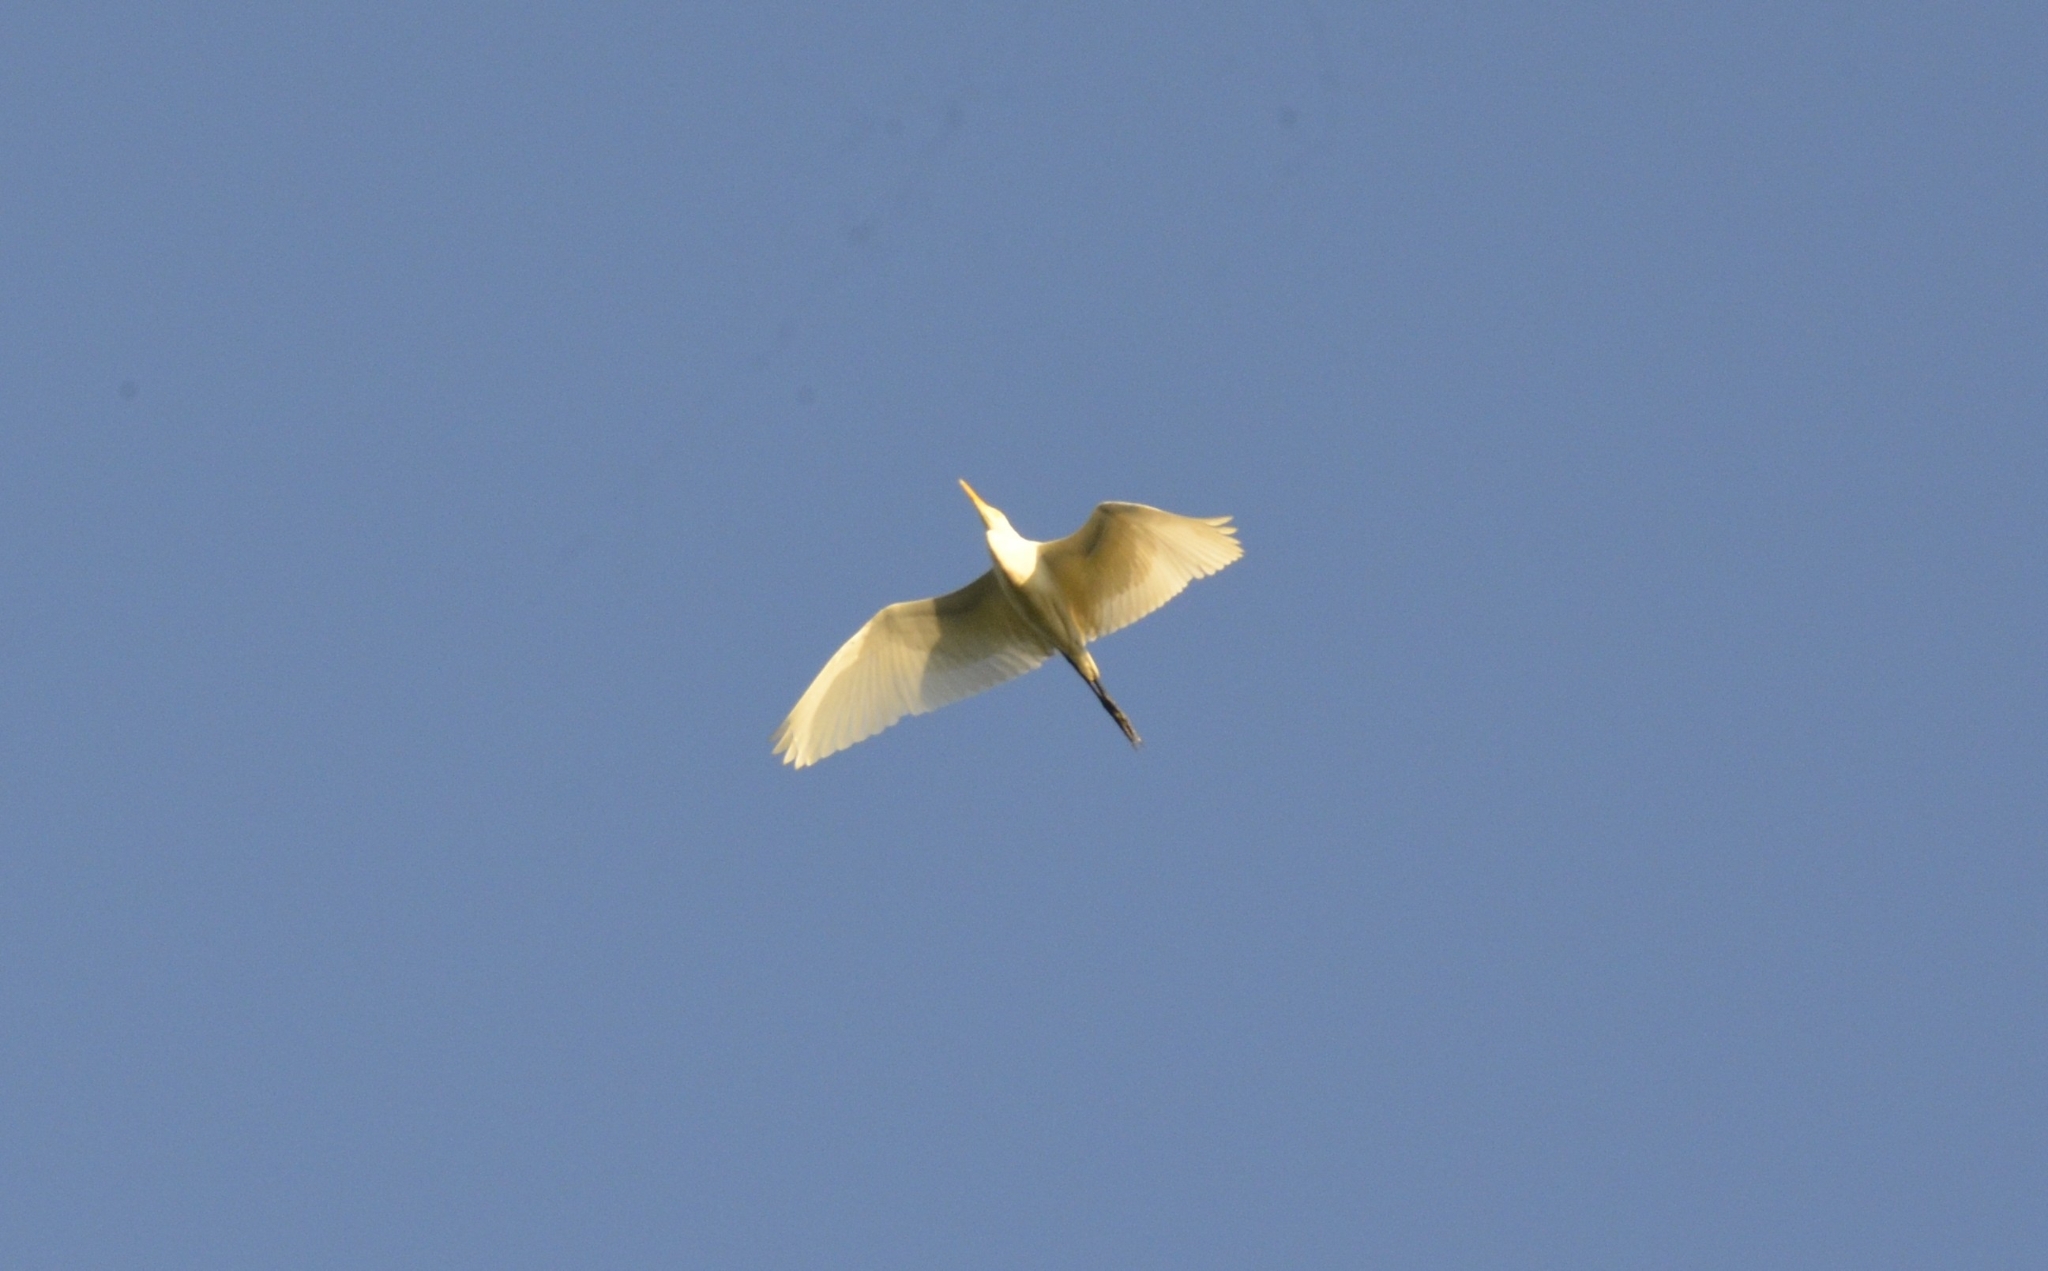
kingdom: Animalia
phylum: Chordata
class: Aves
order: Pelecaniformes
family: Ardeidae
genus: Bubulcus
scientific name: Bubulcus coromandus
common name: Eastern cattle egret
